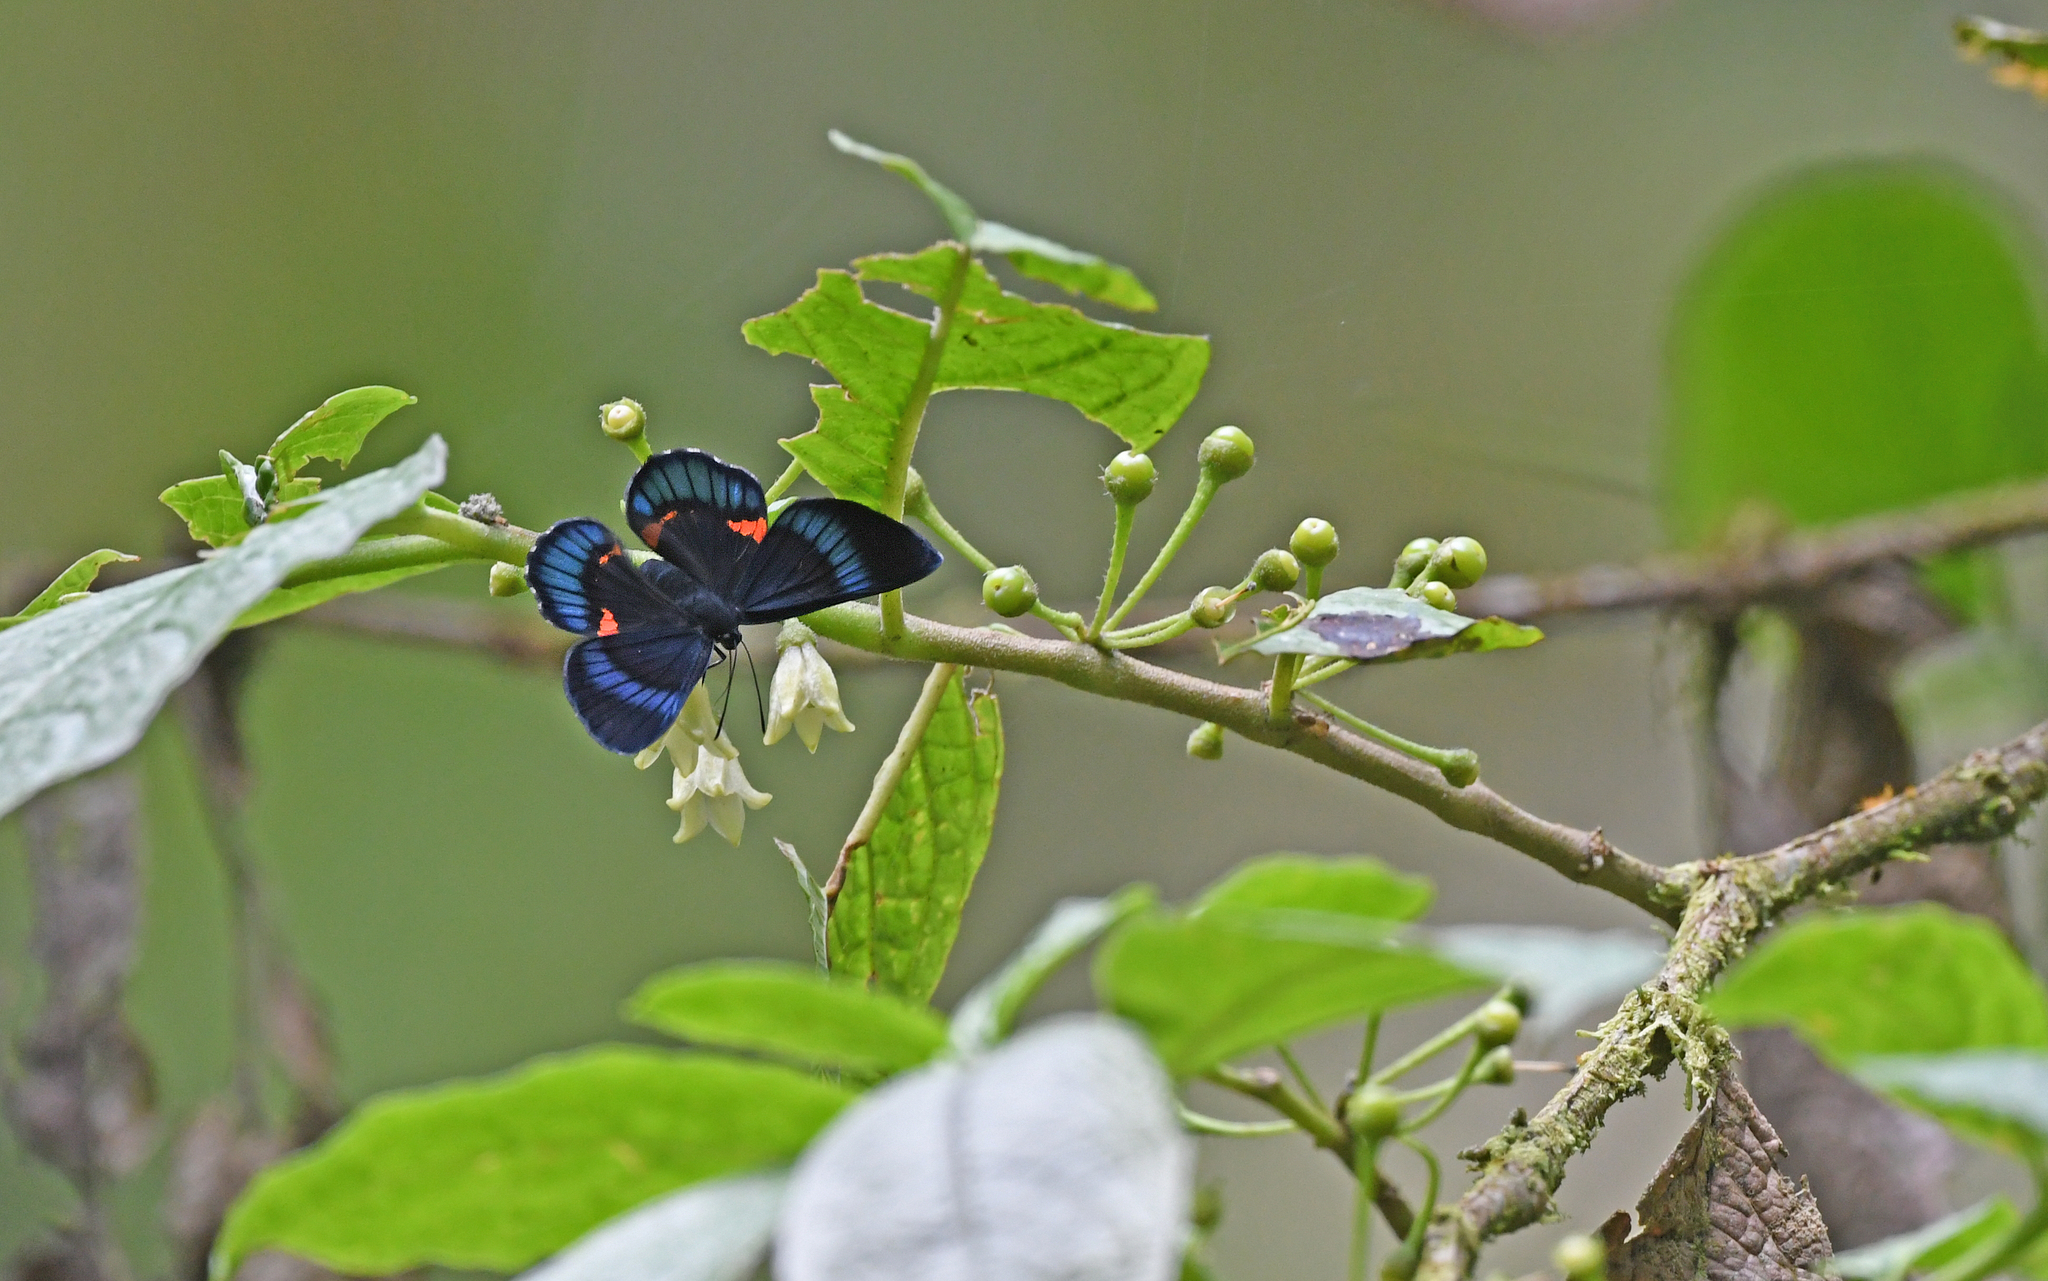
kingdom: Animalia
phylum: Arthropoda
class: Insecta
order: Lepidoptera
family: Lycaenidae
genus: Necyria
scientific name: Necyria bellona
